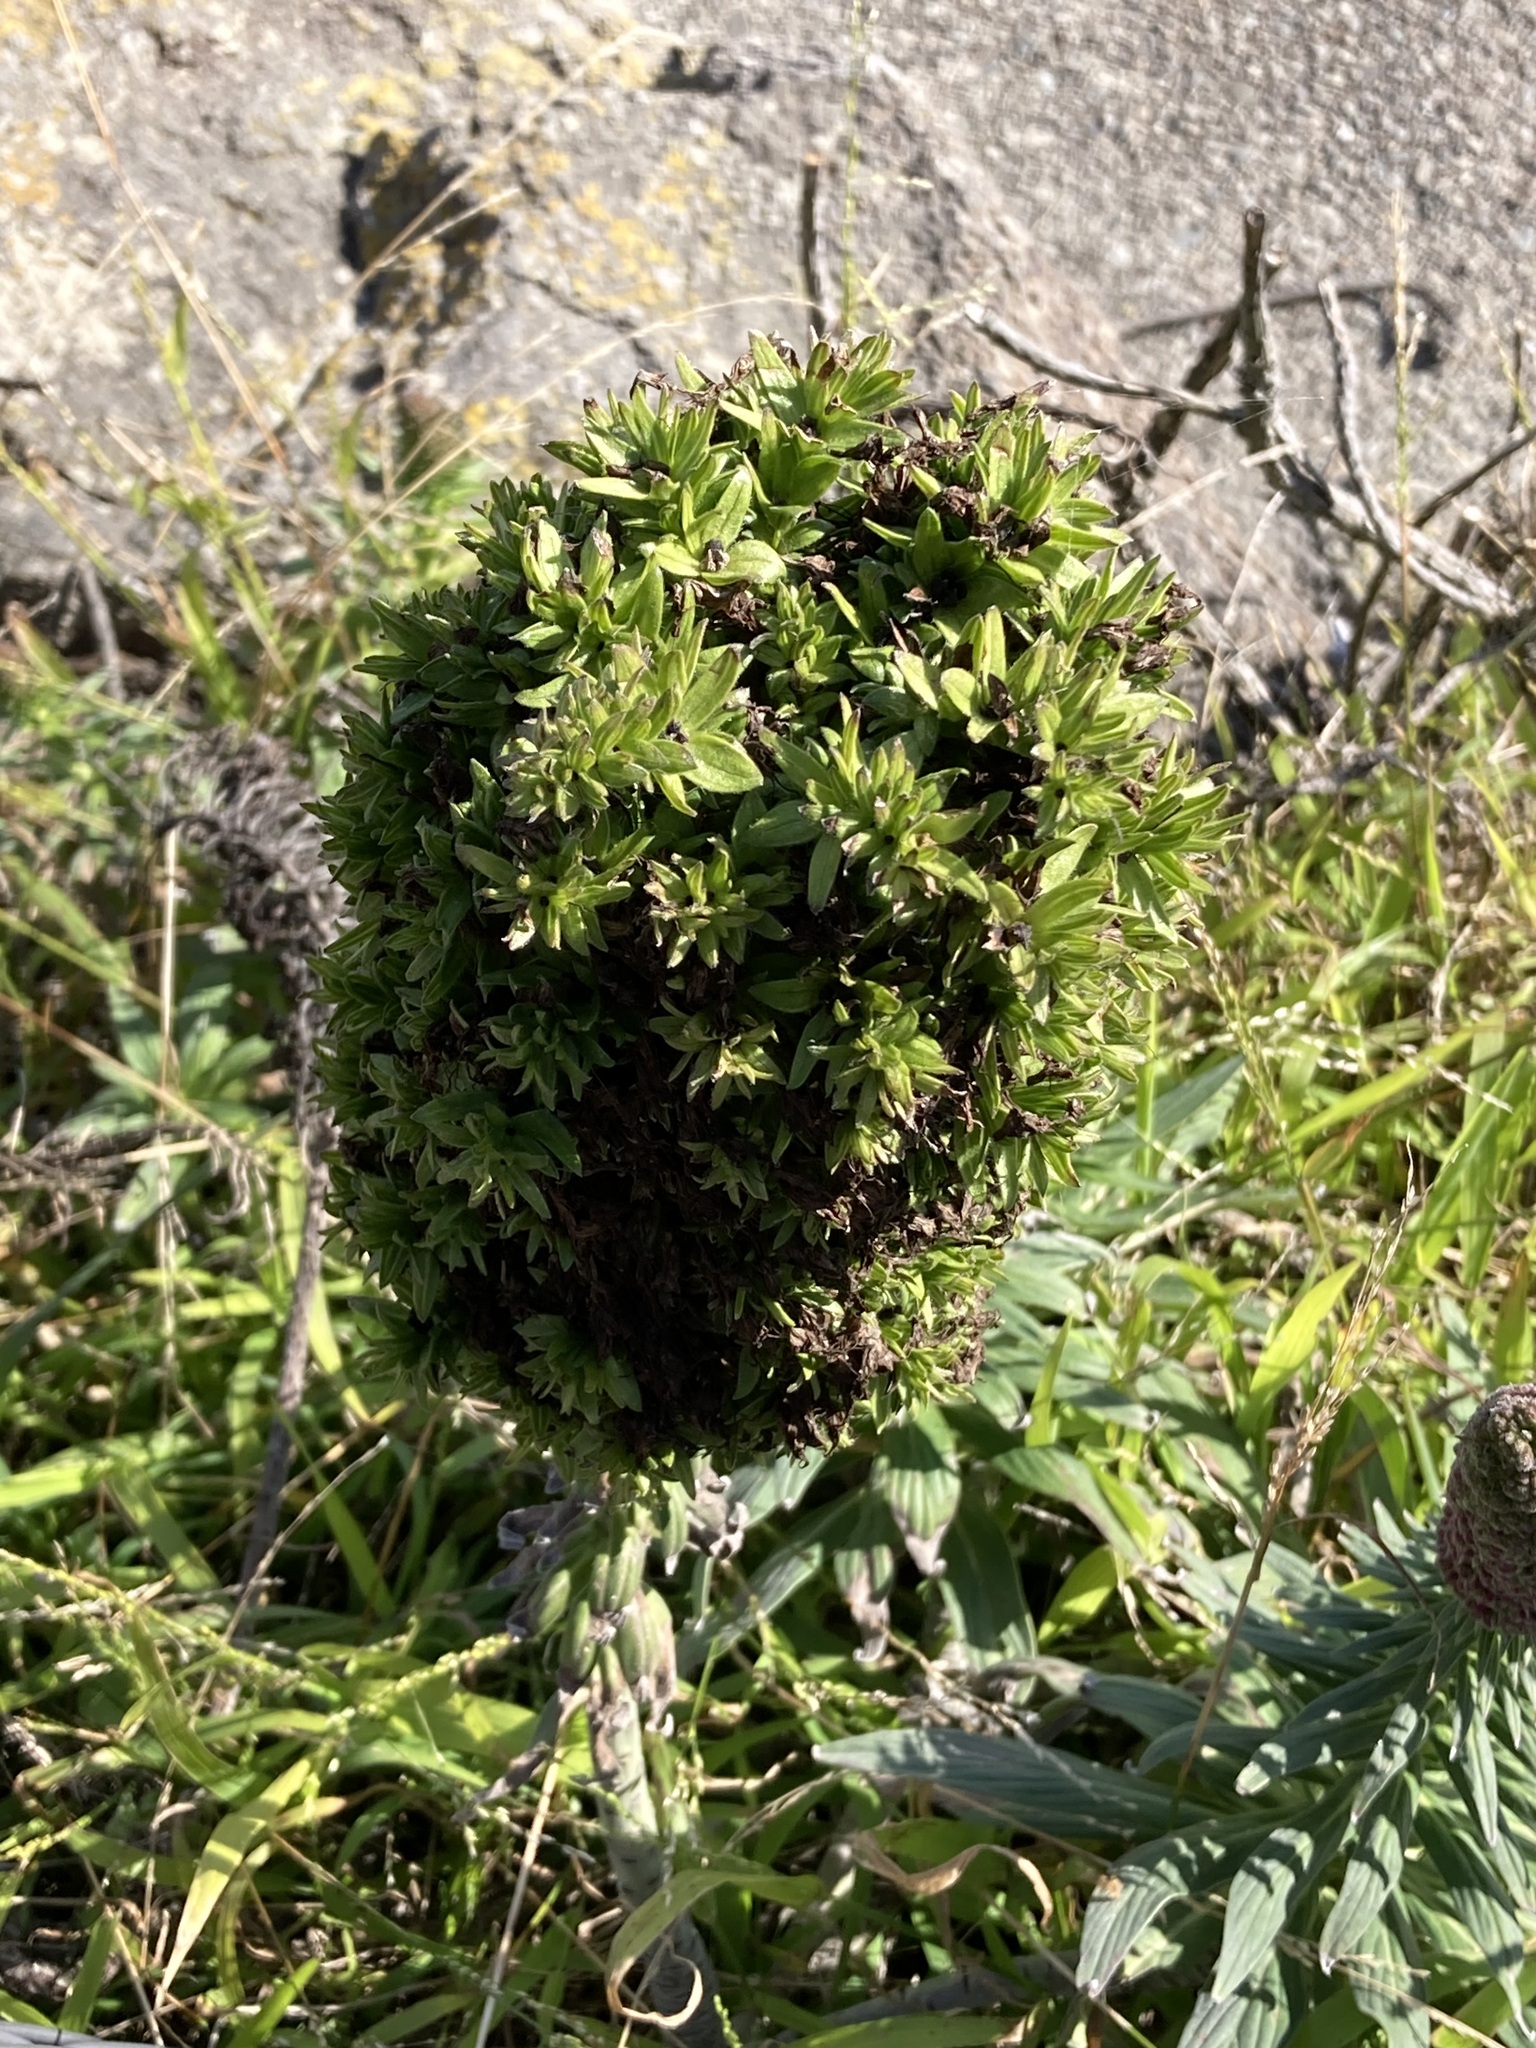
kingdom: Plantae
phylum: Tracheophyta
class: Magnoliopsida
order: Boraginales
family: Boraginaceae
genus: Echium
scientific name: Echium candicans
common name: Pride of madeira
